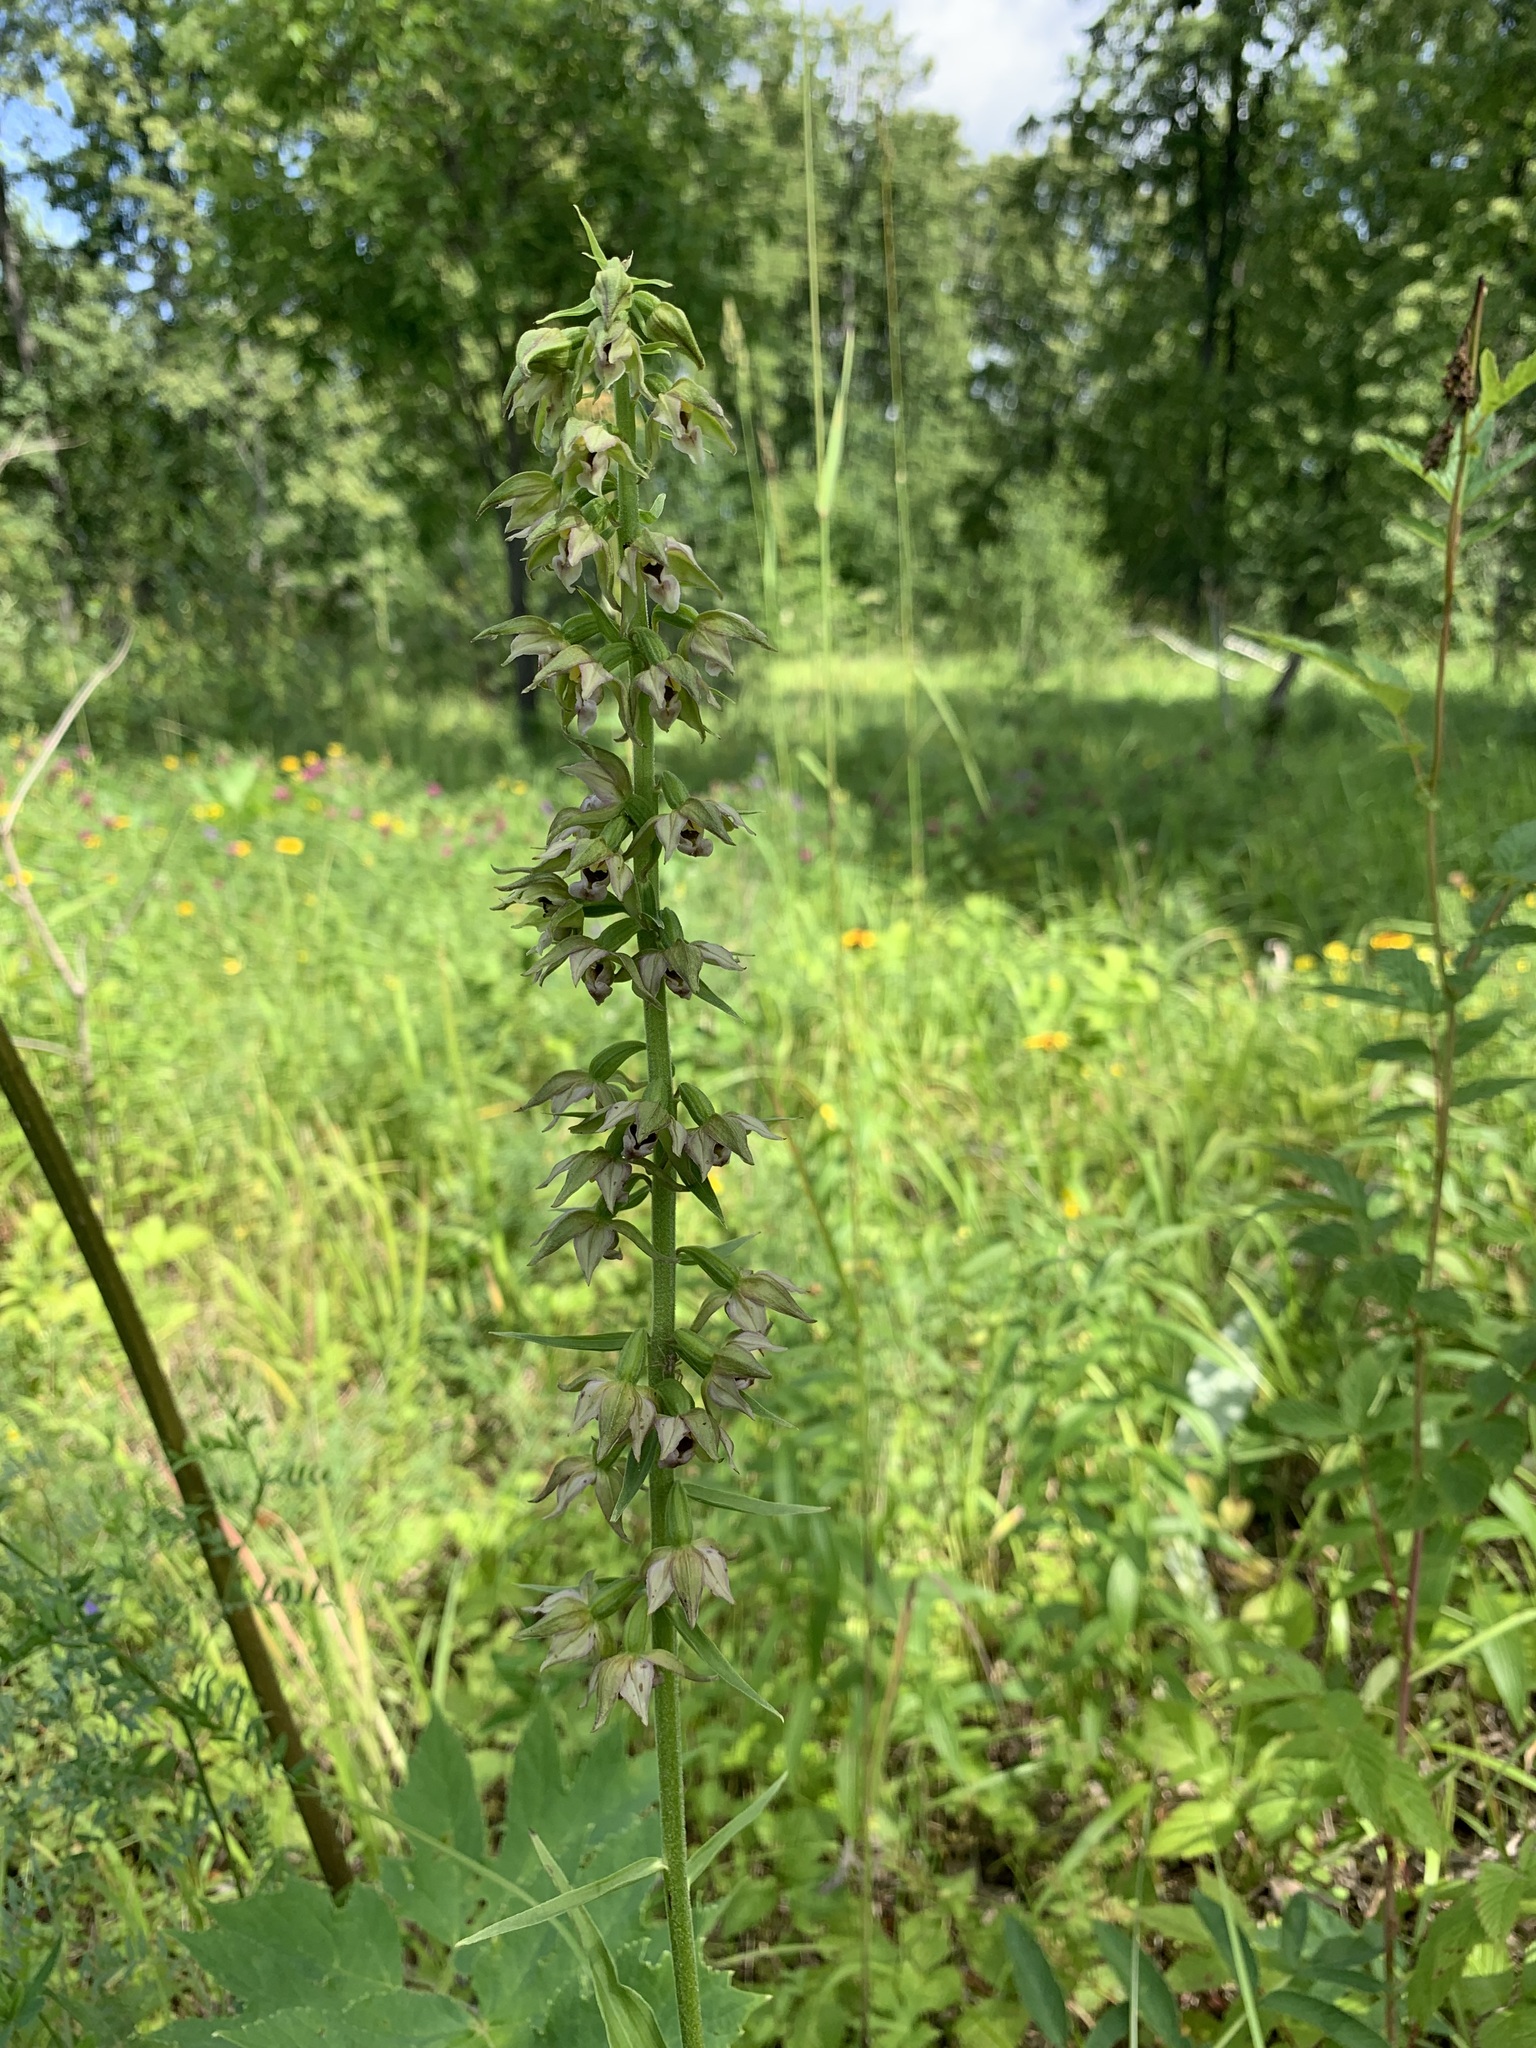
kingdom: Plantae
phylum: Tracheophyta
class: Liliopsida
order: Asparagales
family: Orchidaceae
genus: Epipactis
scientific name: Epipactis helleborine
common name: Broad-leaved helleborine
